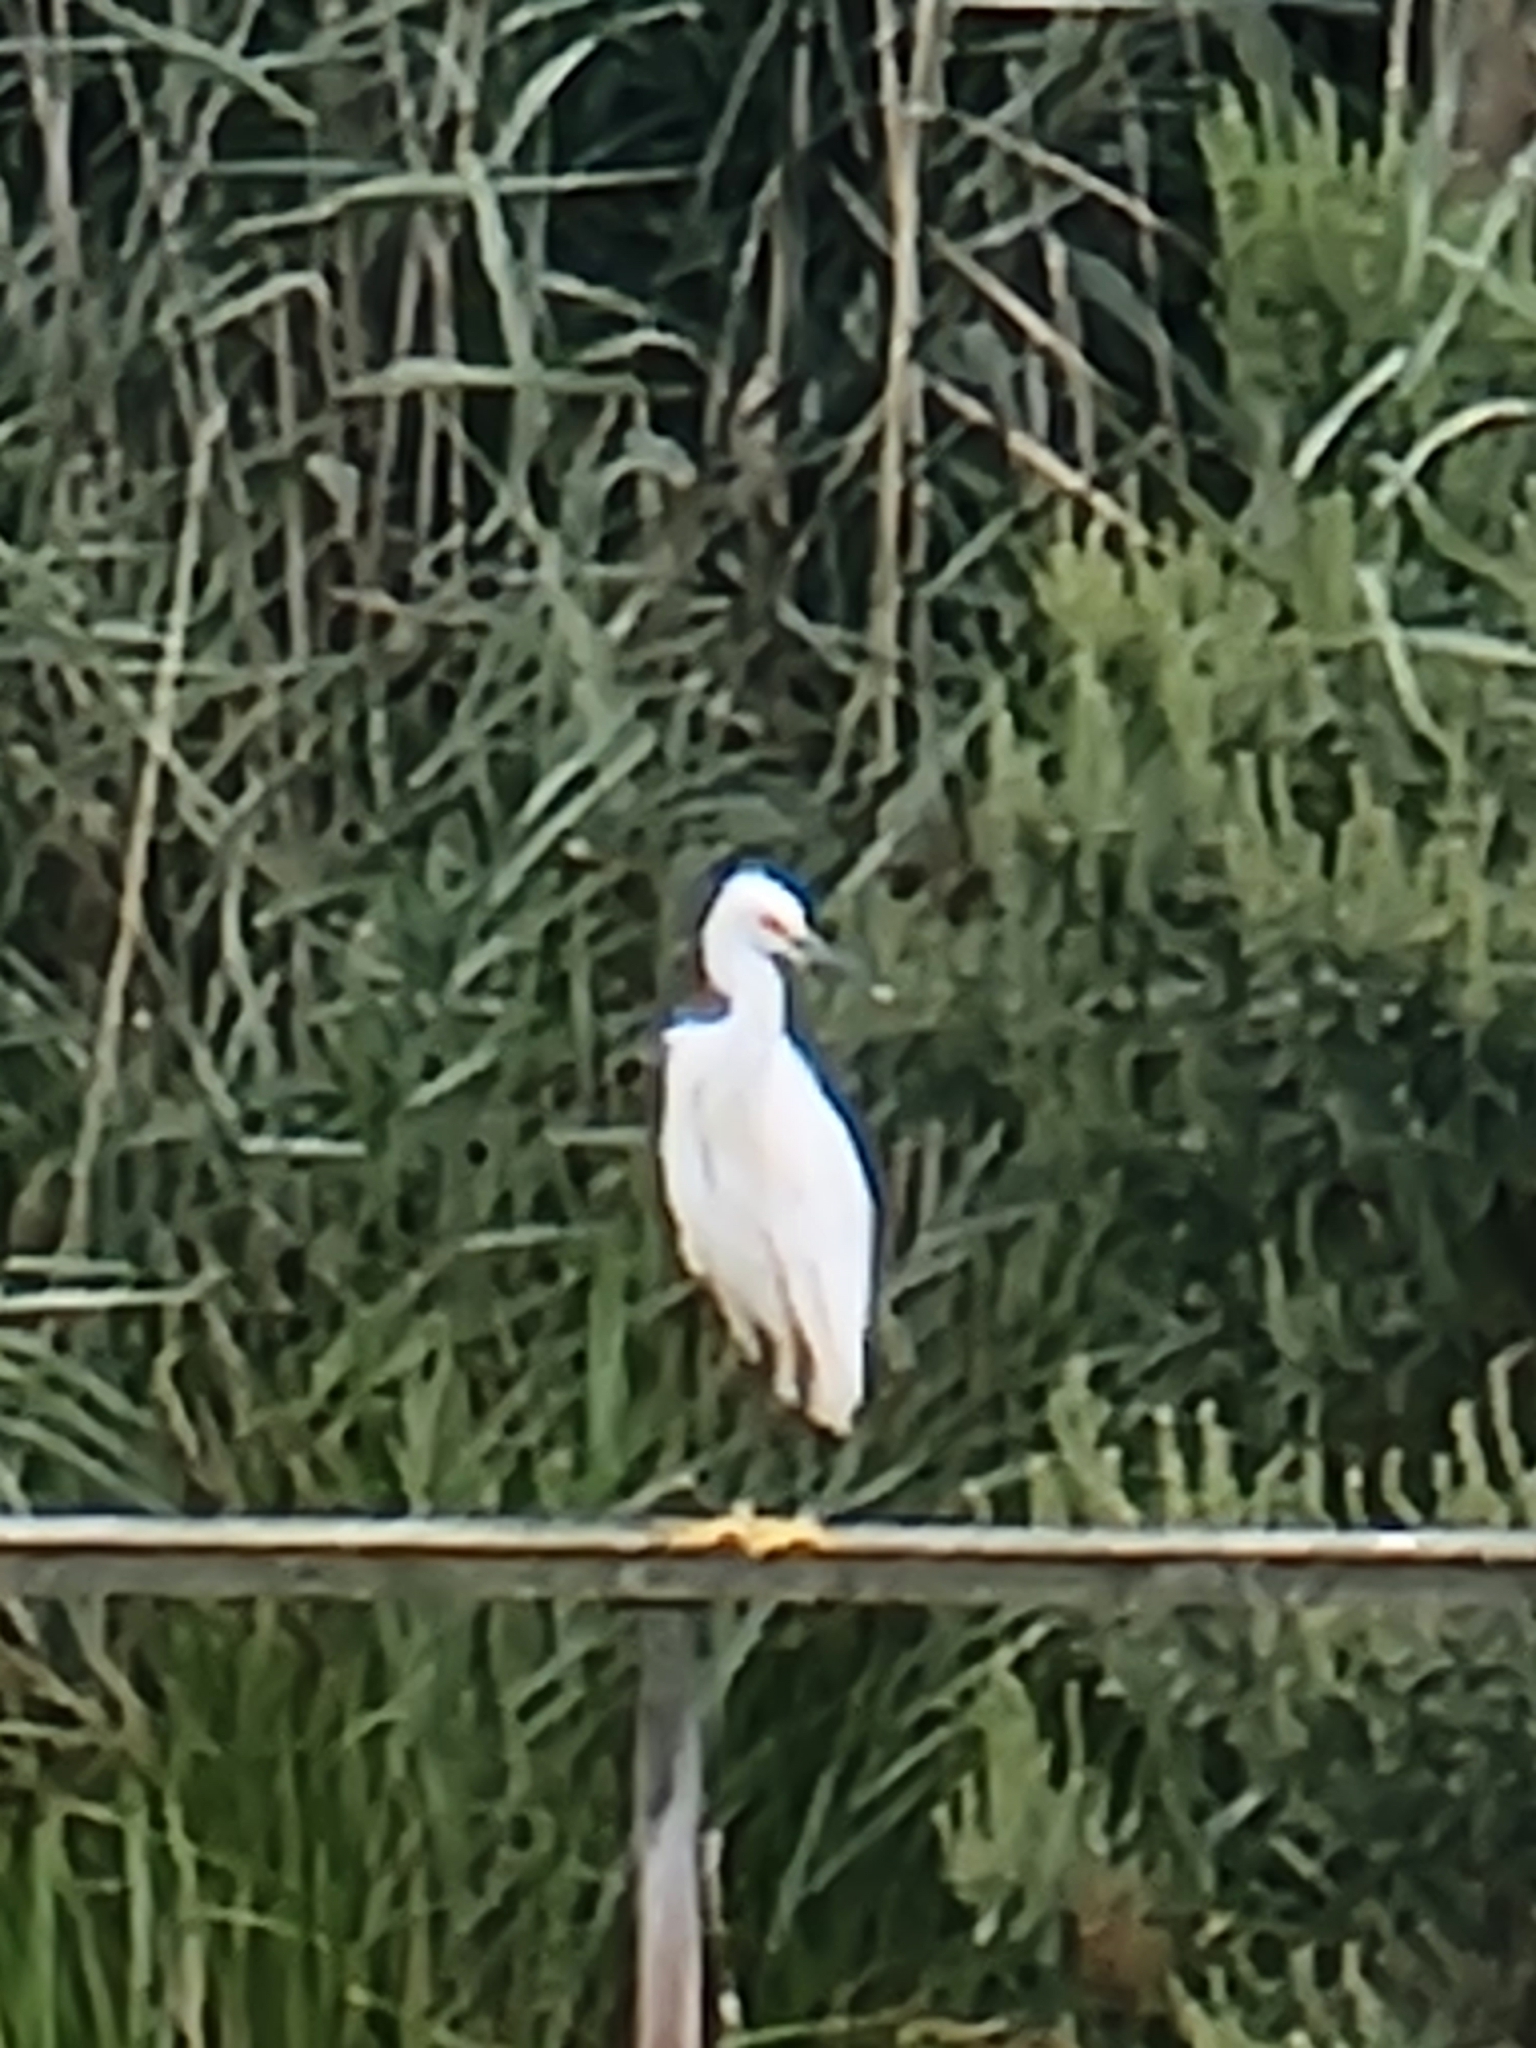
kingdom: Animalia
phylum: Chordata
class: Aves
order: Pelecaniformes
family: Ardeidae
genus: Egretta
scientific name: Egretta thula
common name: Snowy egret
